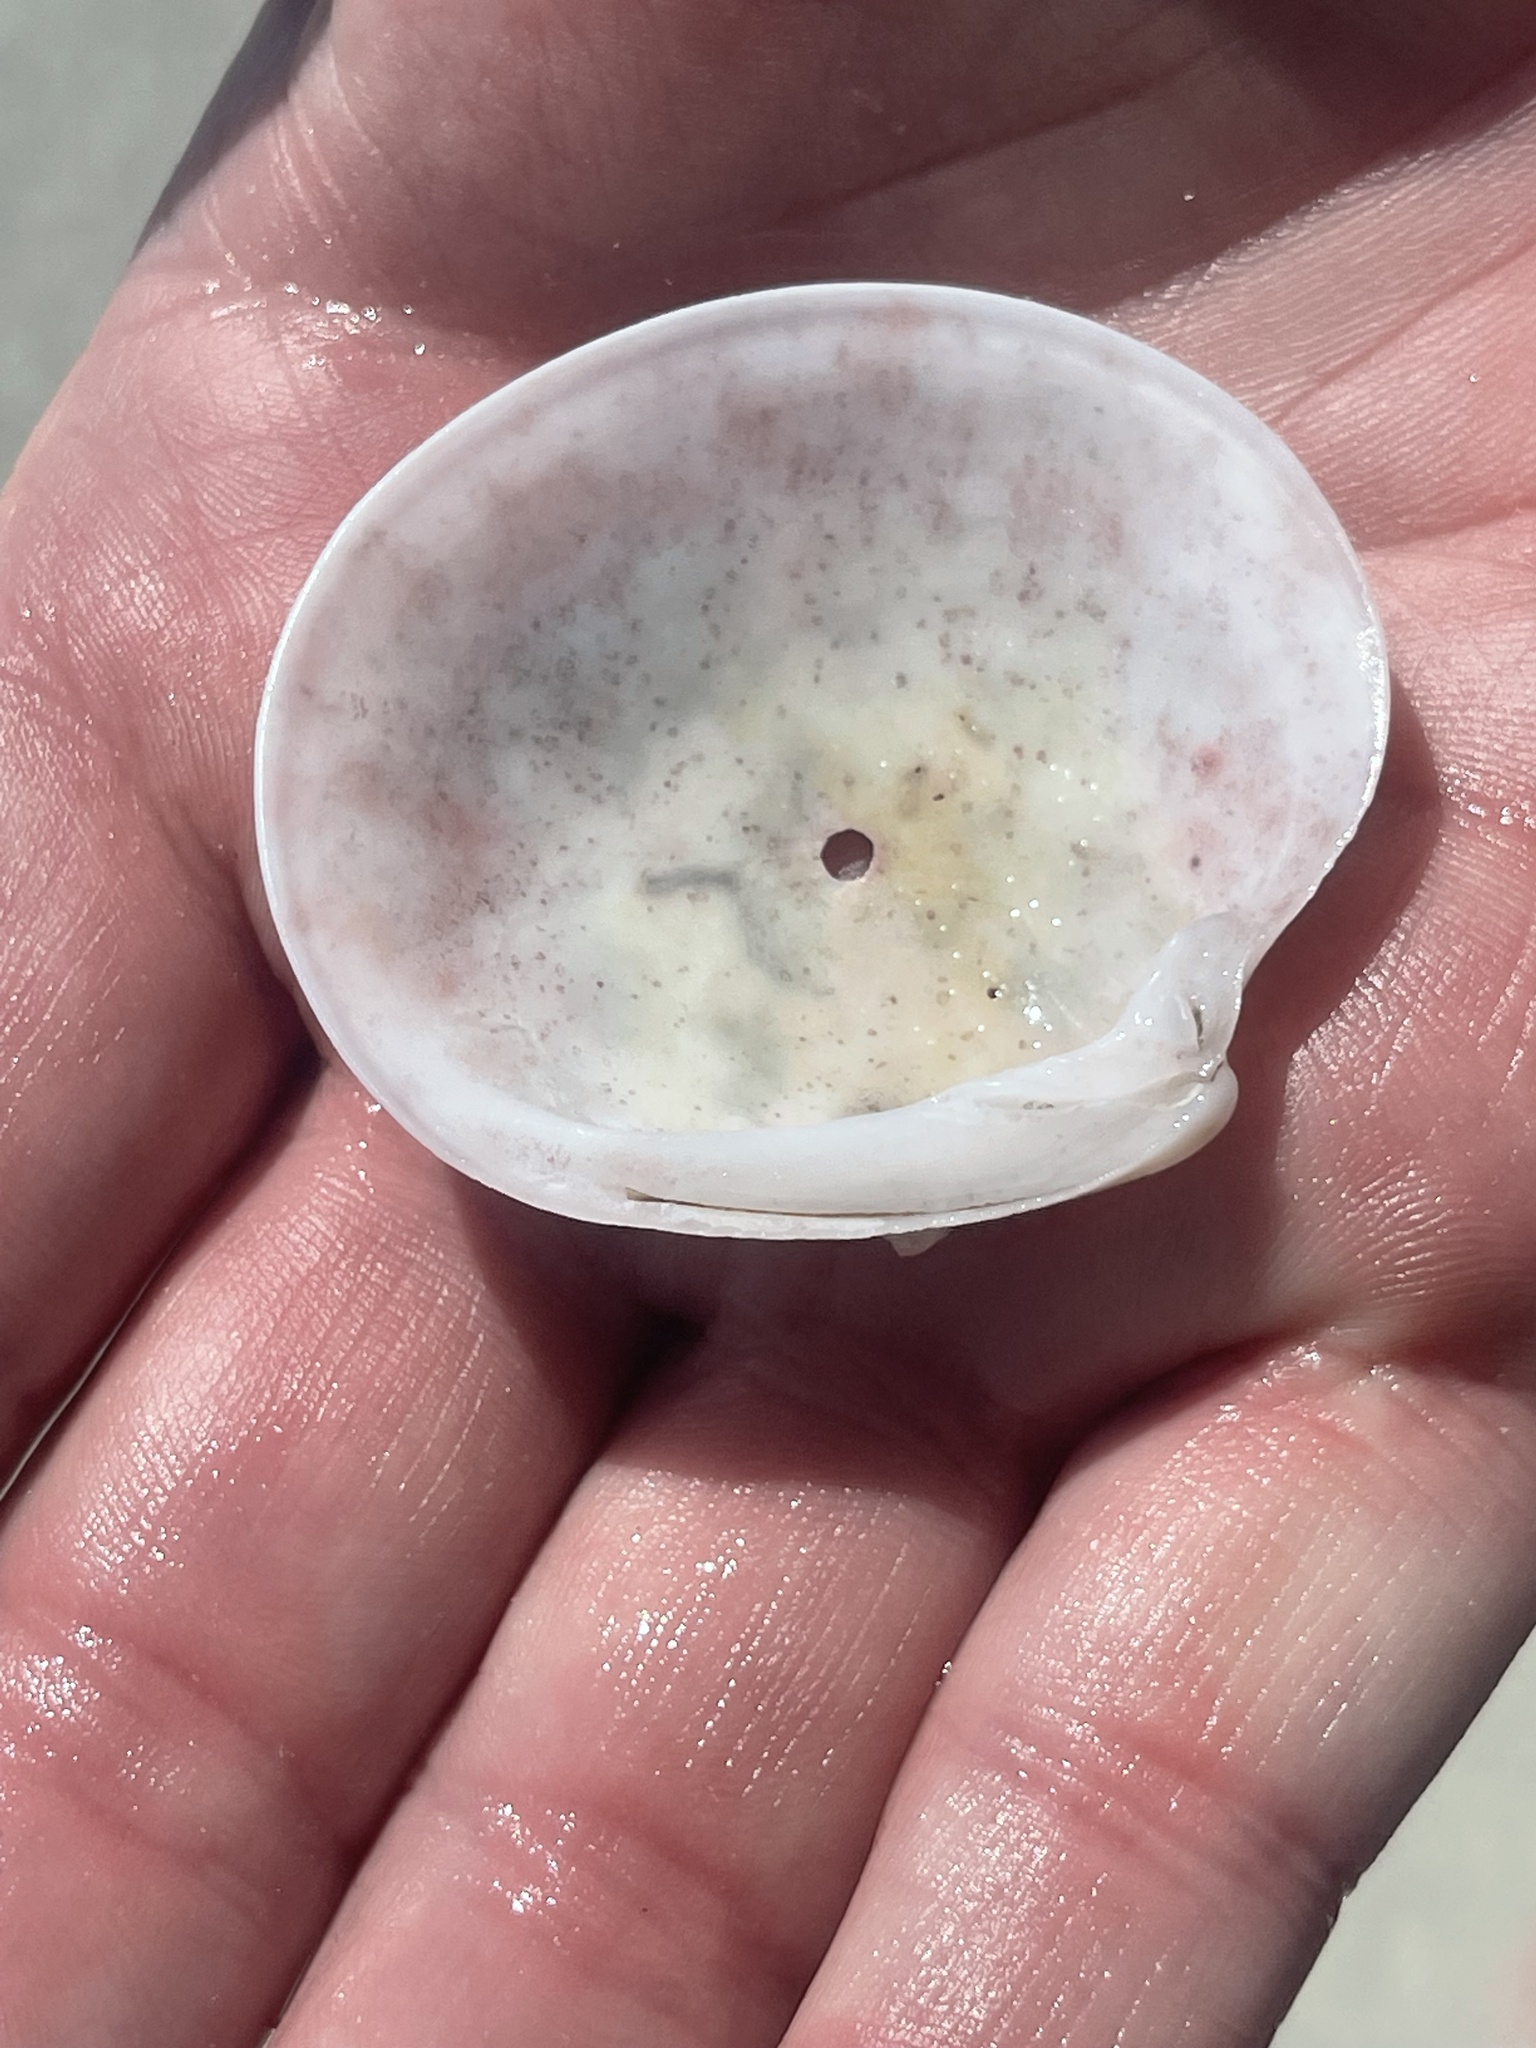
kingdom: Animalia
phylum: Mollusca
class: Bivalvia
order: Venerida
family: Veneridae
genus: Dosinia
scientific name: Dosinia concentrica
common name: Elegant dosinia
